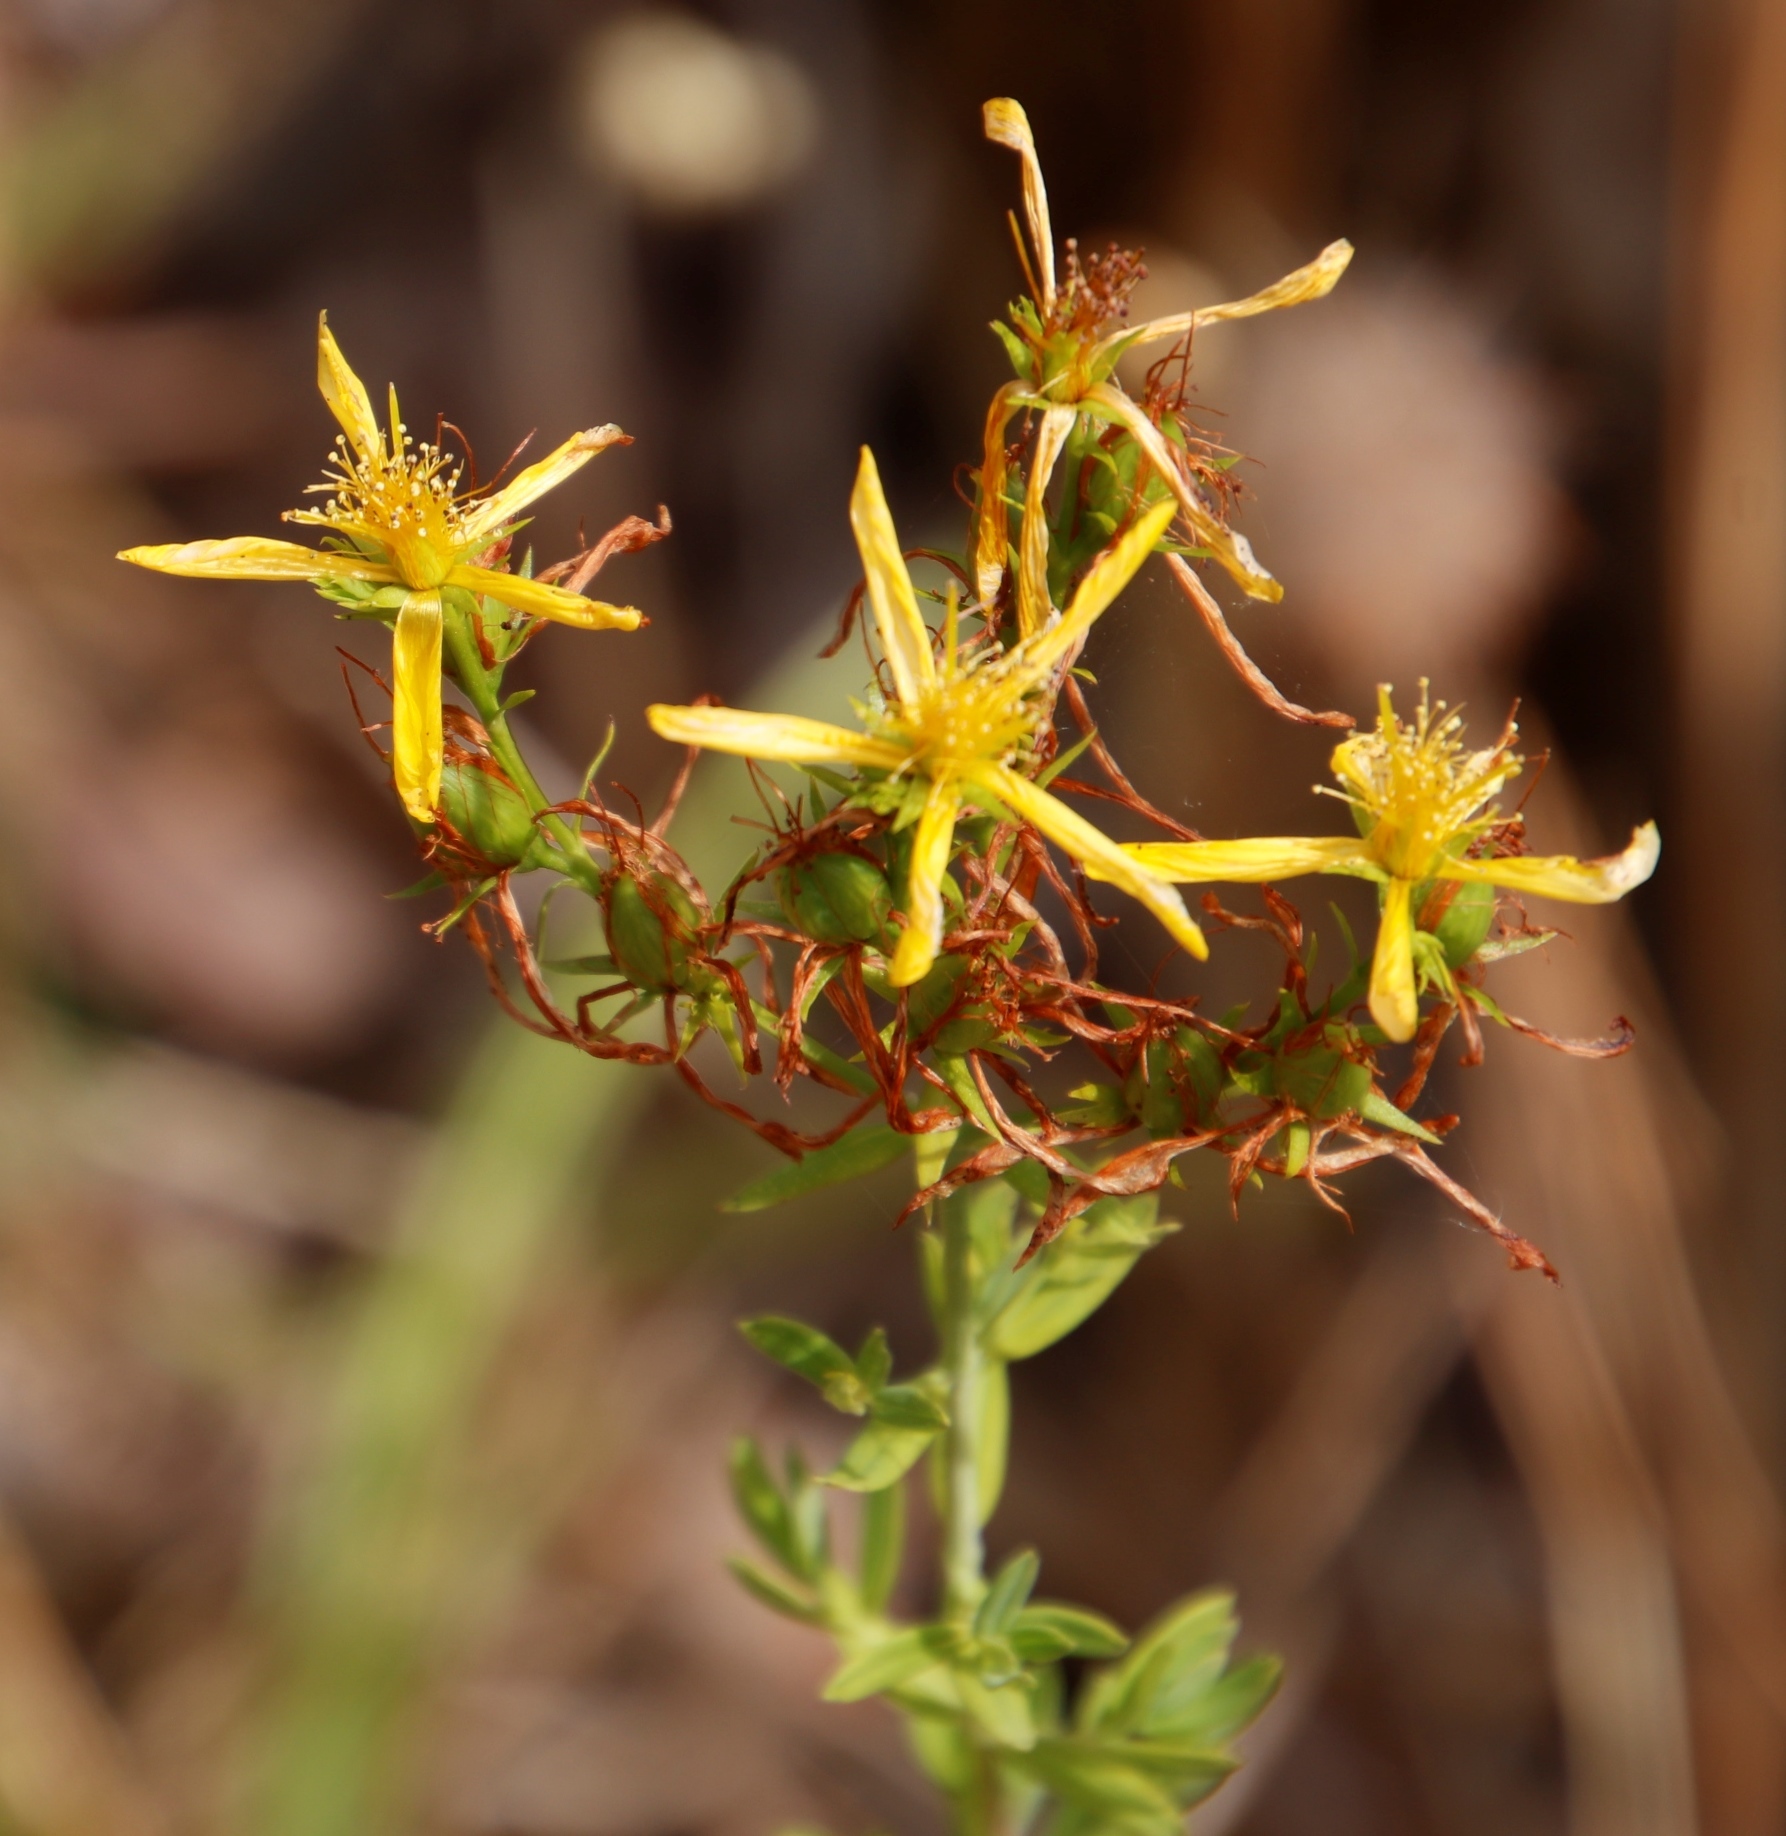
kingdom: Plantae
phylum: Tracheophyta
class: Magnoliopsida
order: Malpighiales
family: Hypericaceae
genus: Hypericum
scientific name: Hypericum perforatum
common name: Common st. johnswort
